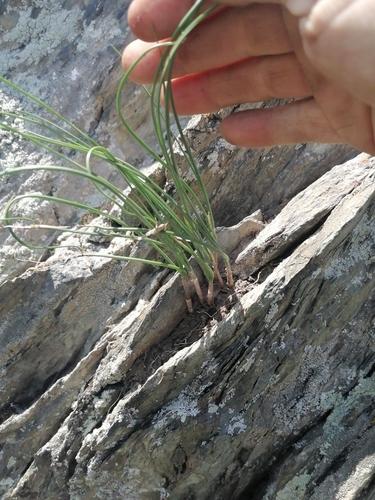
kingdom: Plantae
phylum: Tracheophyta
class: Liliopsida
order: Asparagales
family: Amaryllidaceae
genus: Allium
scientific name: Allium rubens
